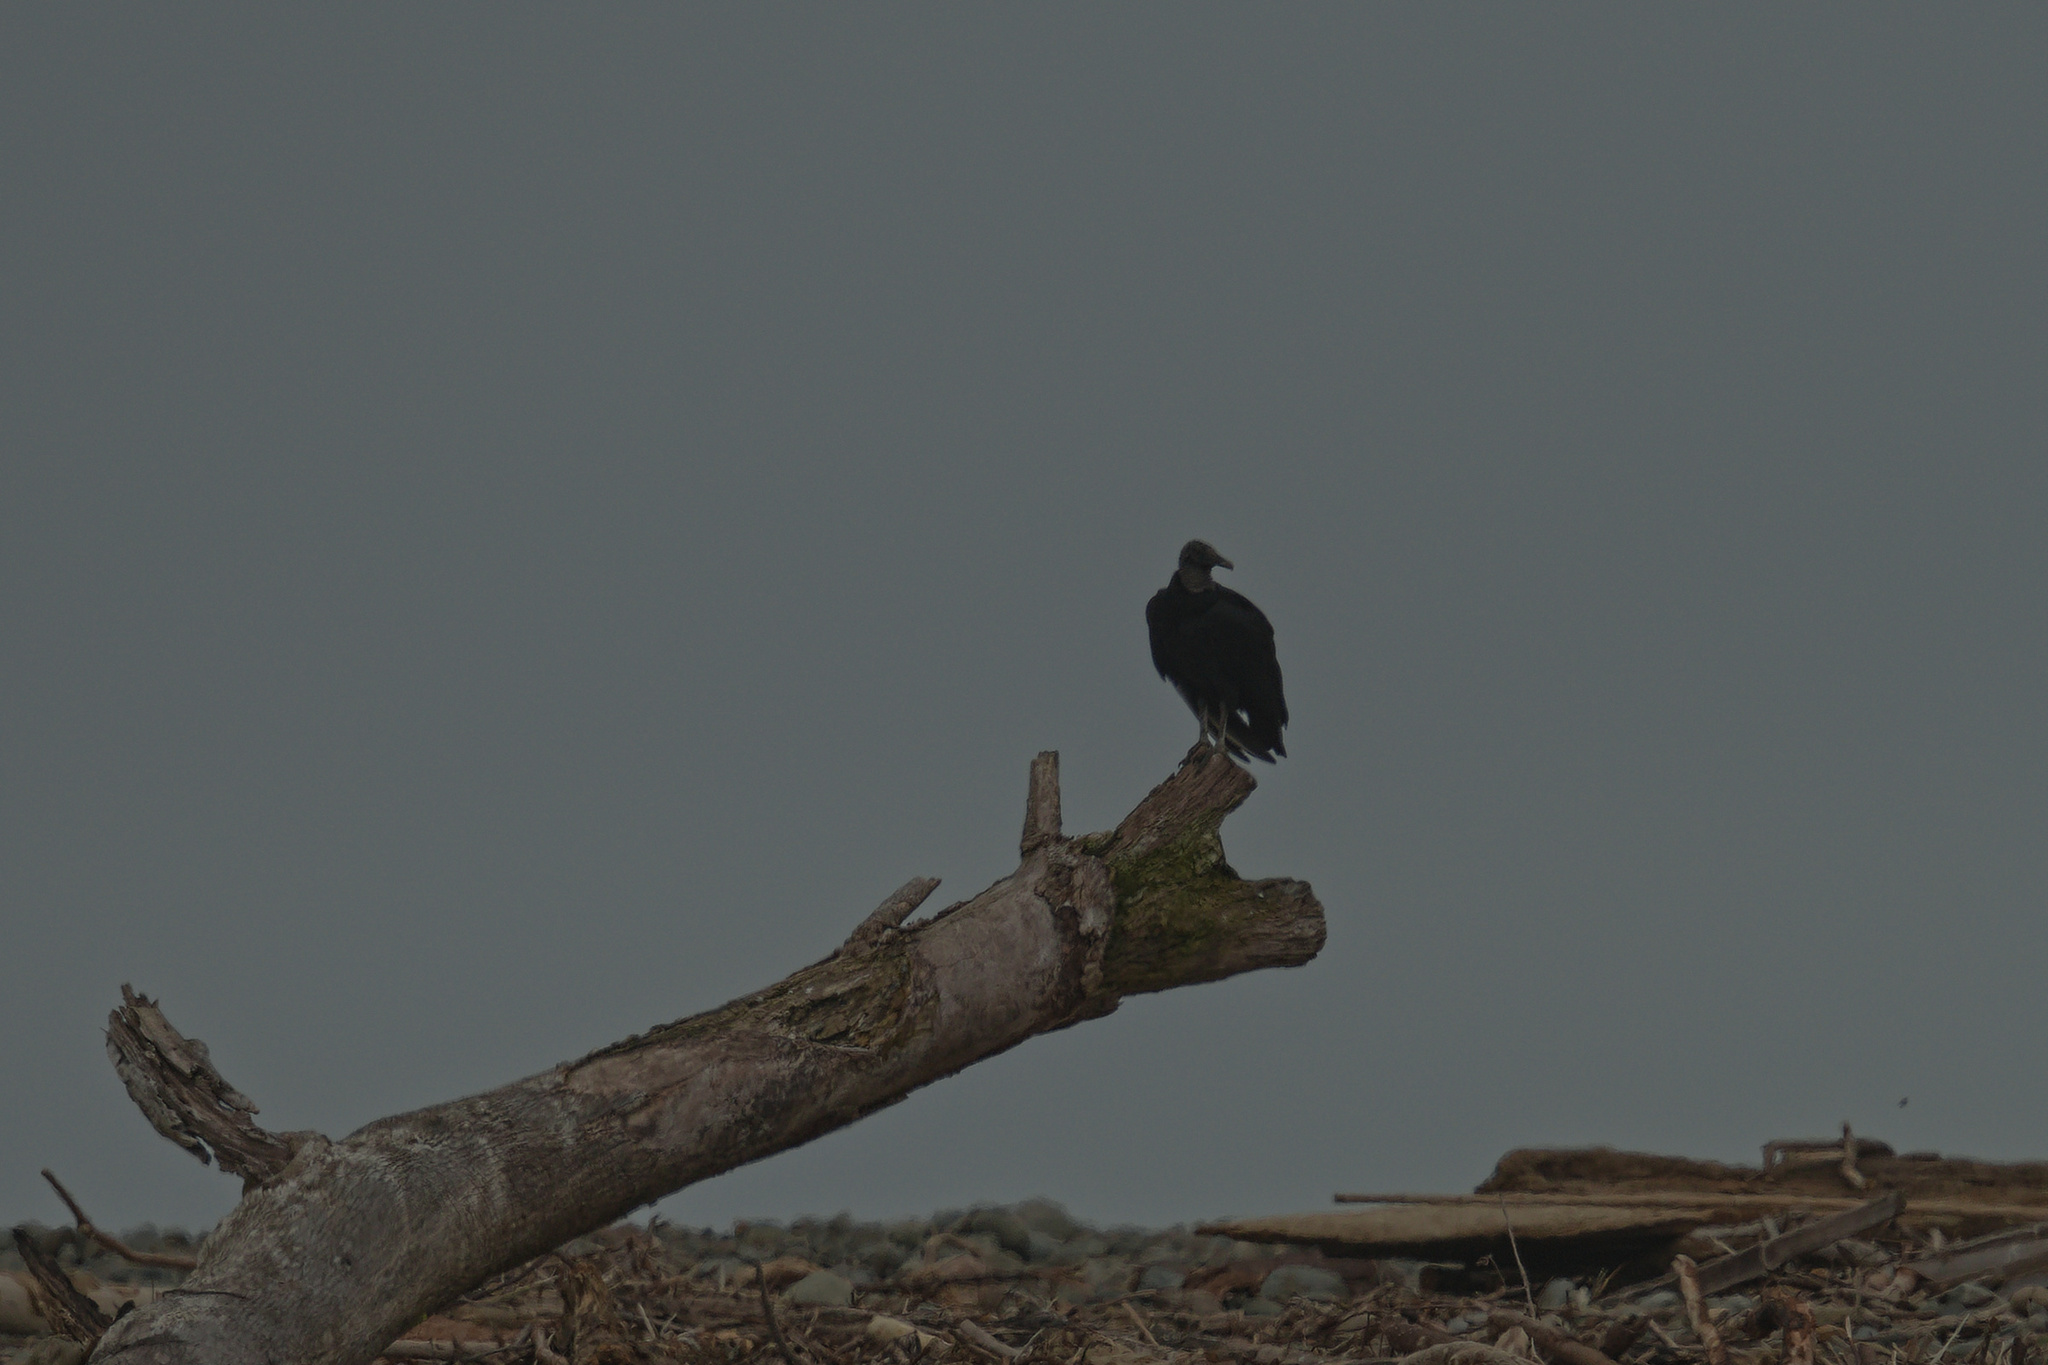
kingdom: Animalia
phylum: Chordata
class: Aves
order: Accipitriformes
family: Cathartidae
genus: Coragyps
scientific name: Coragyps atratus
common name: Black vulture
